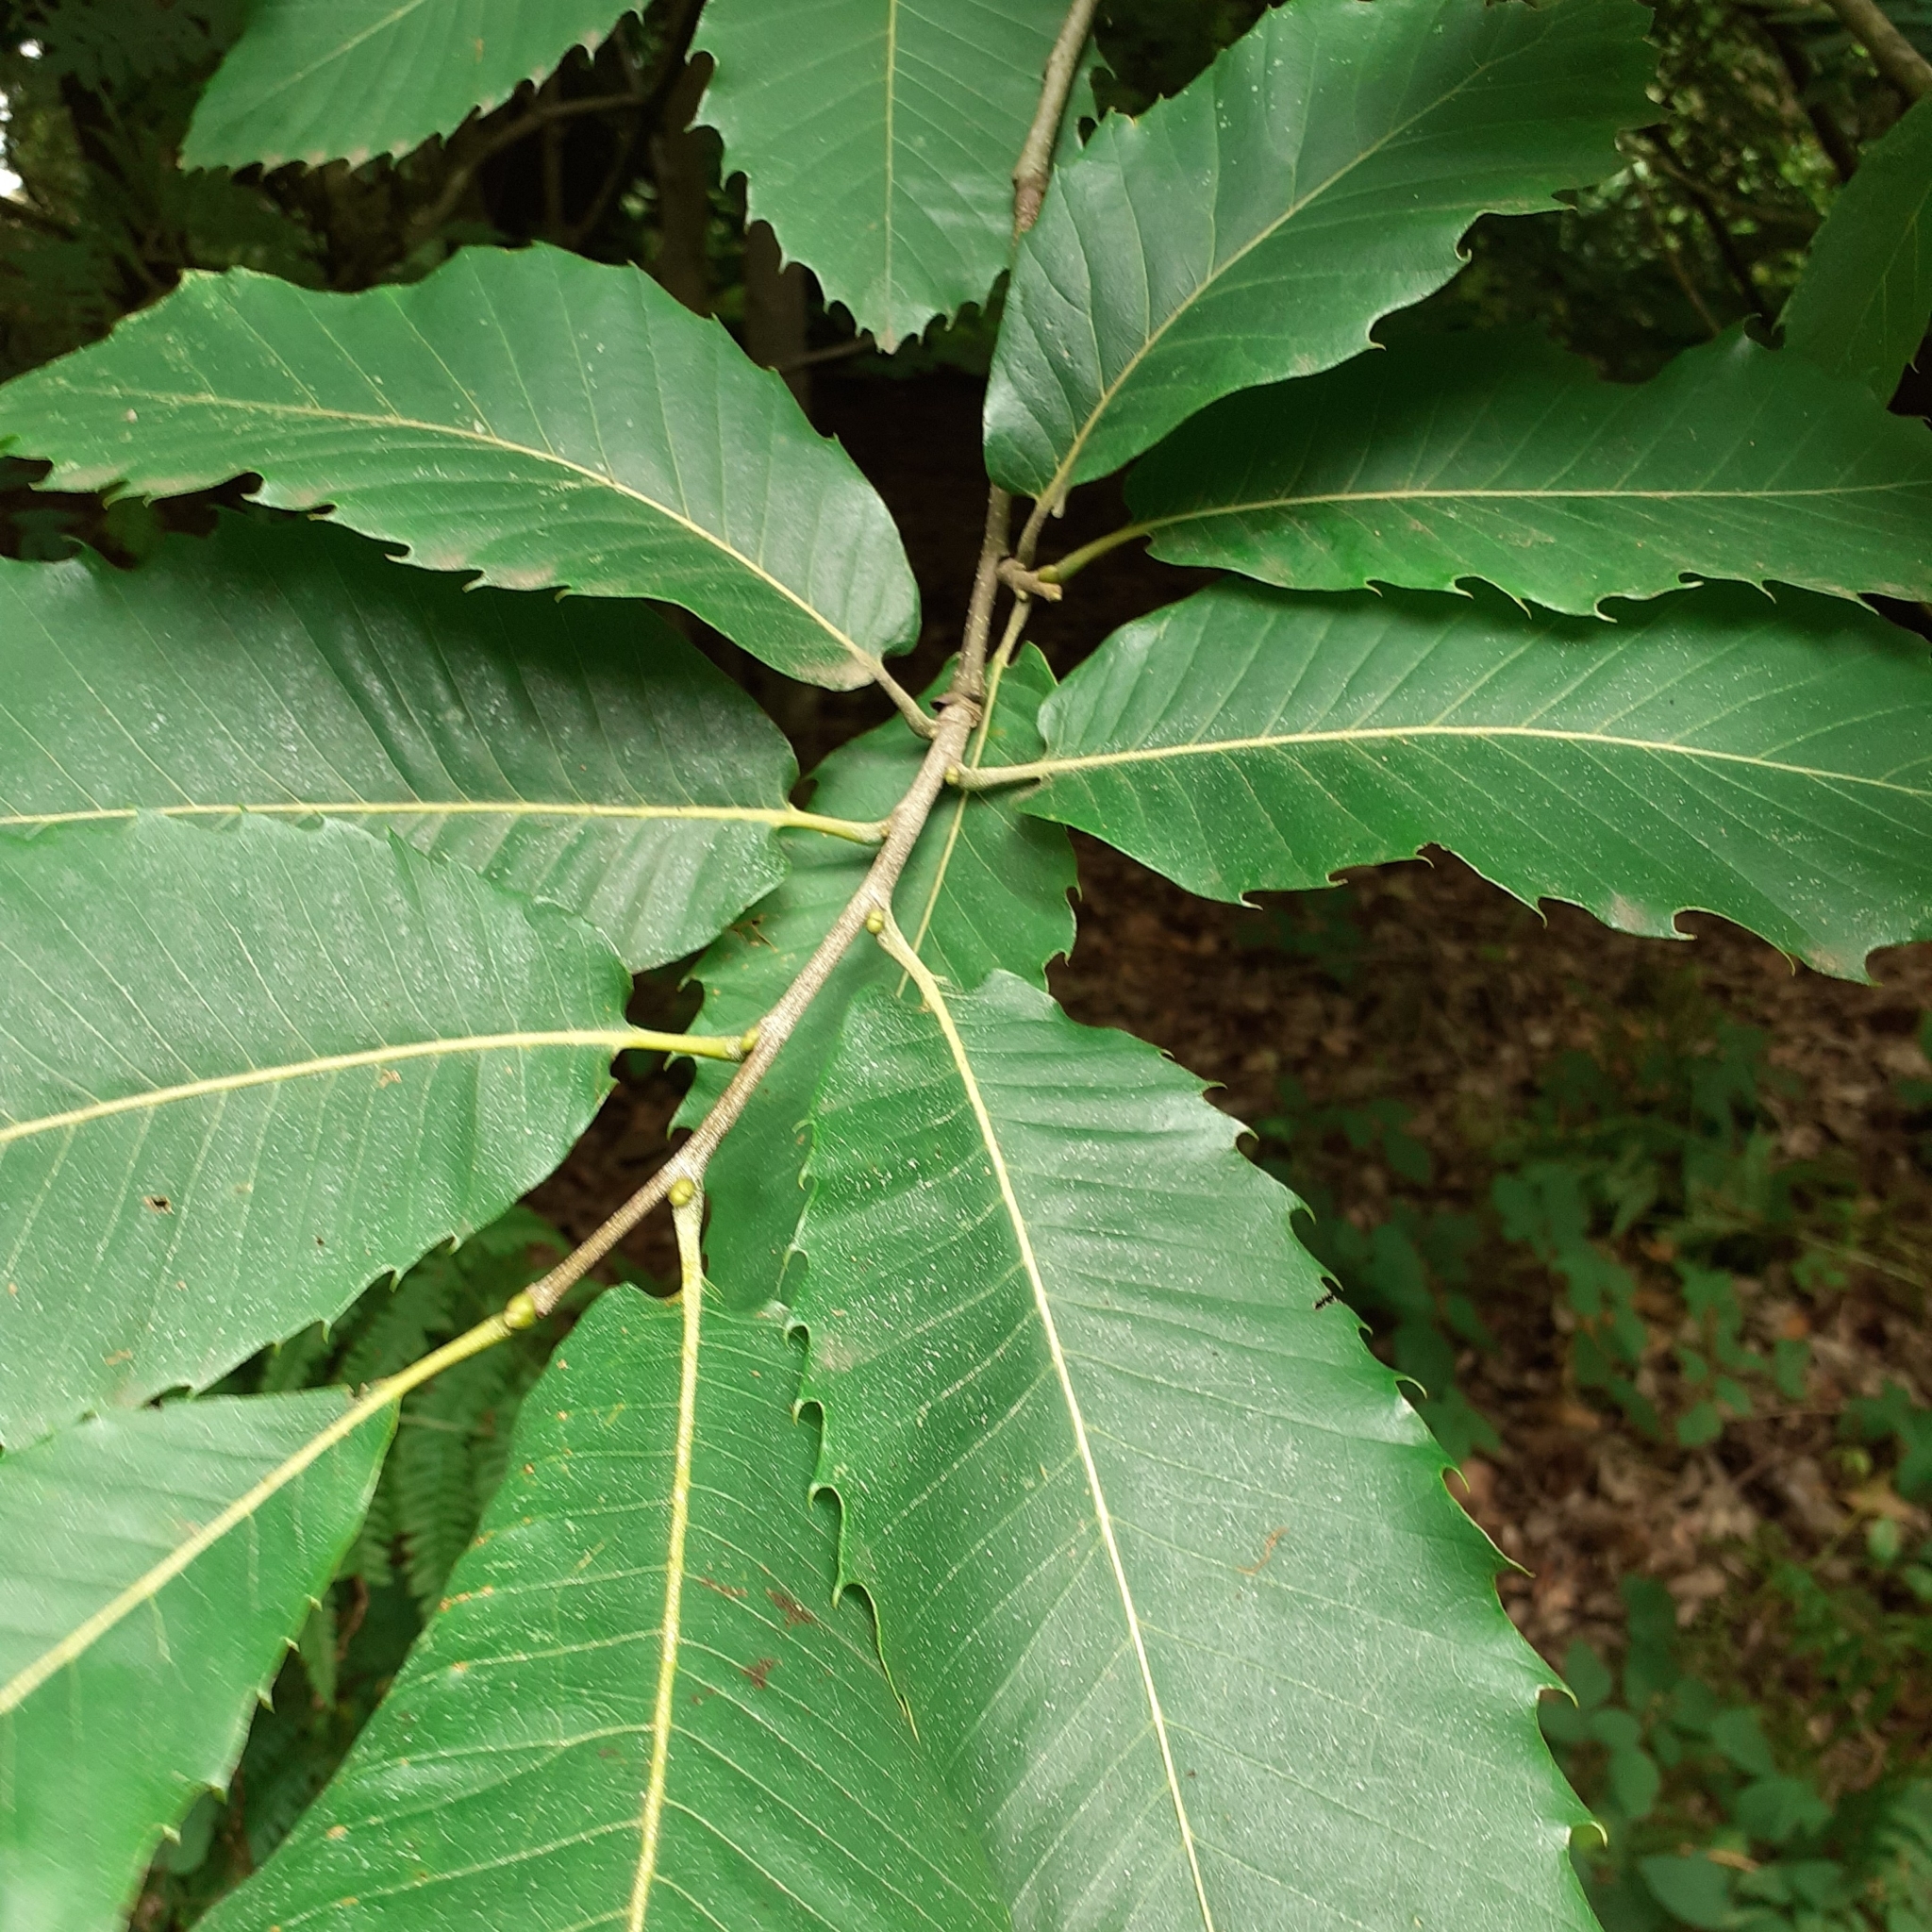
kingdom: Plantae
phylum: Tracheophyta
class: Magnoliopsida
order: Fagales
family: Fagaceae
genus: Castanea
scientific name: Castanea sativa
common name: Sweet chestnut
